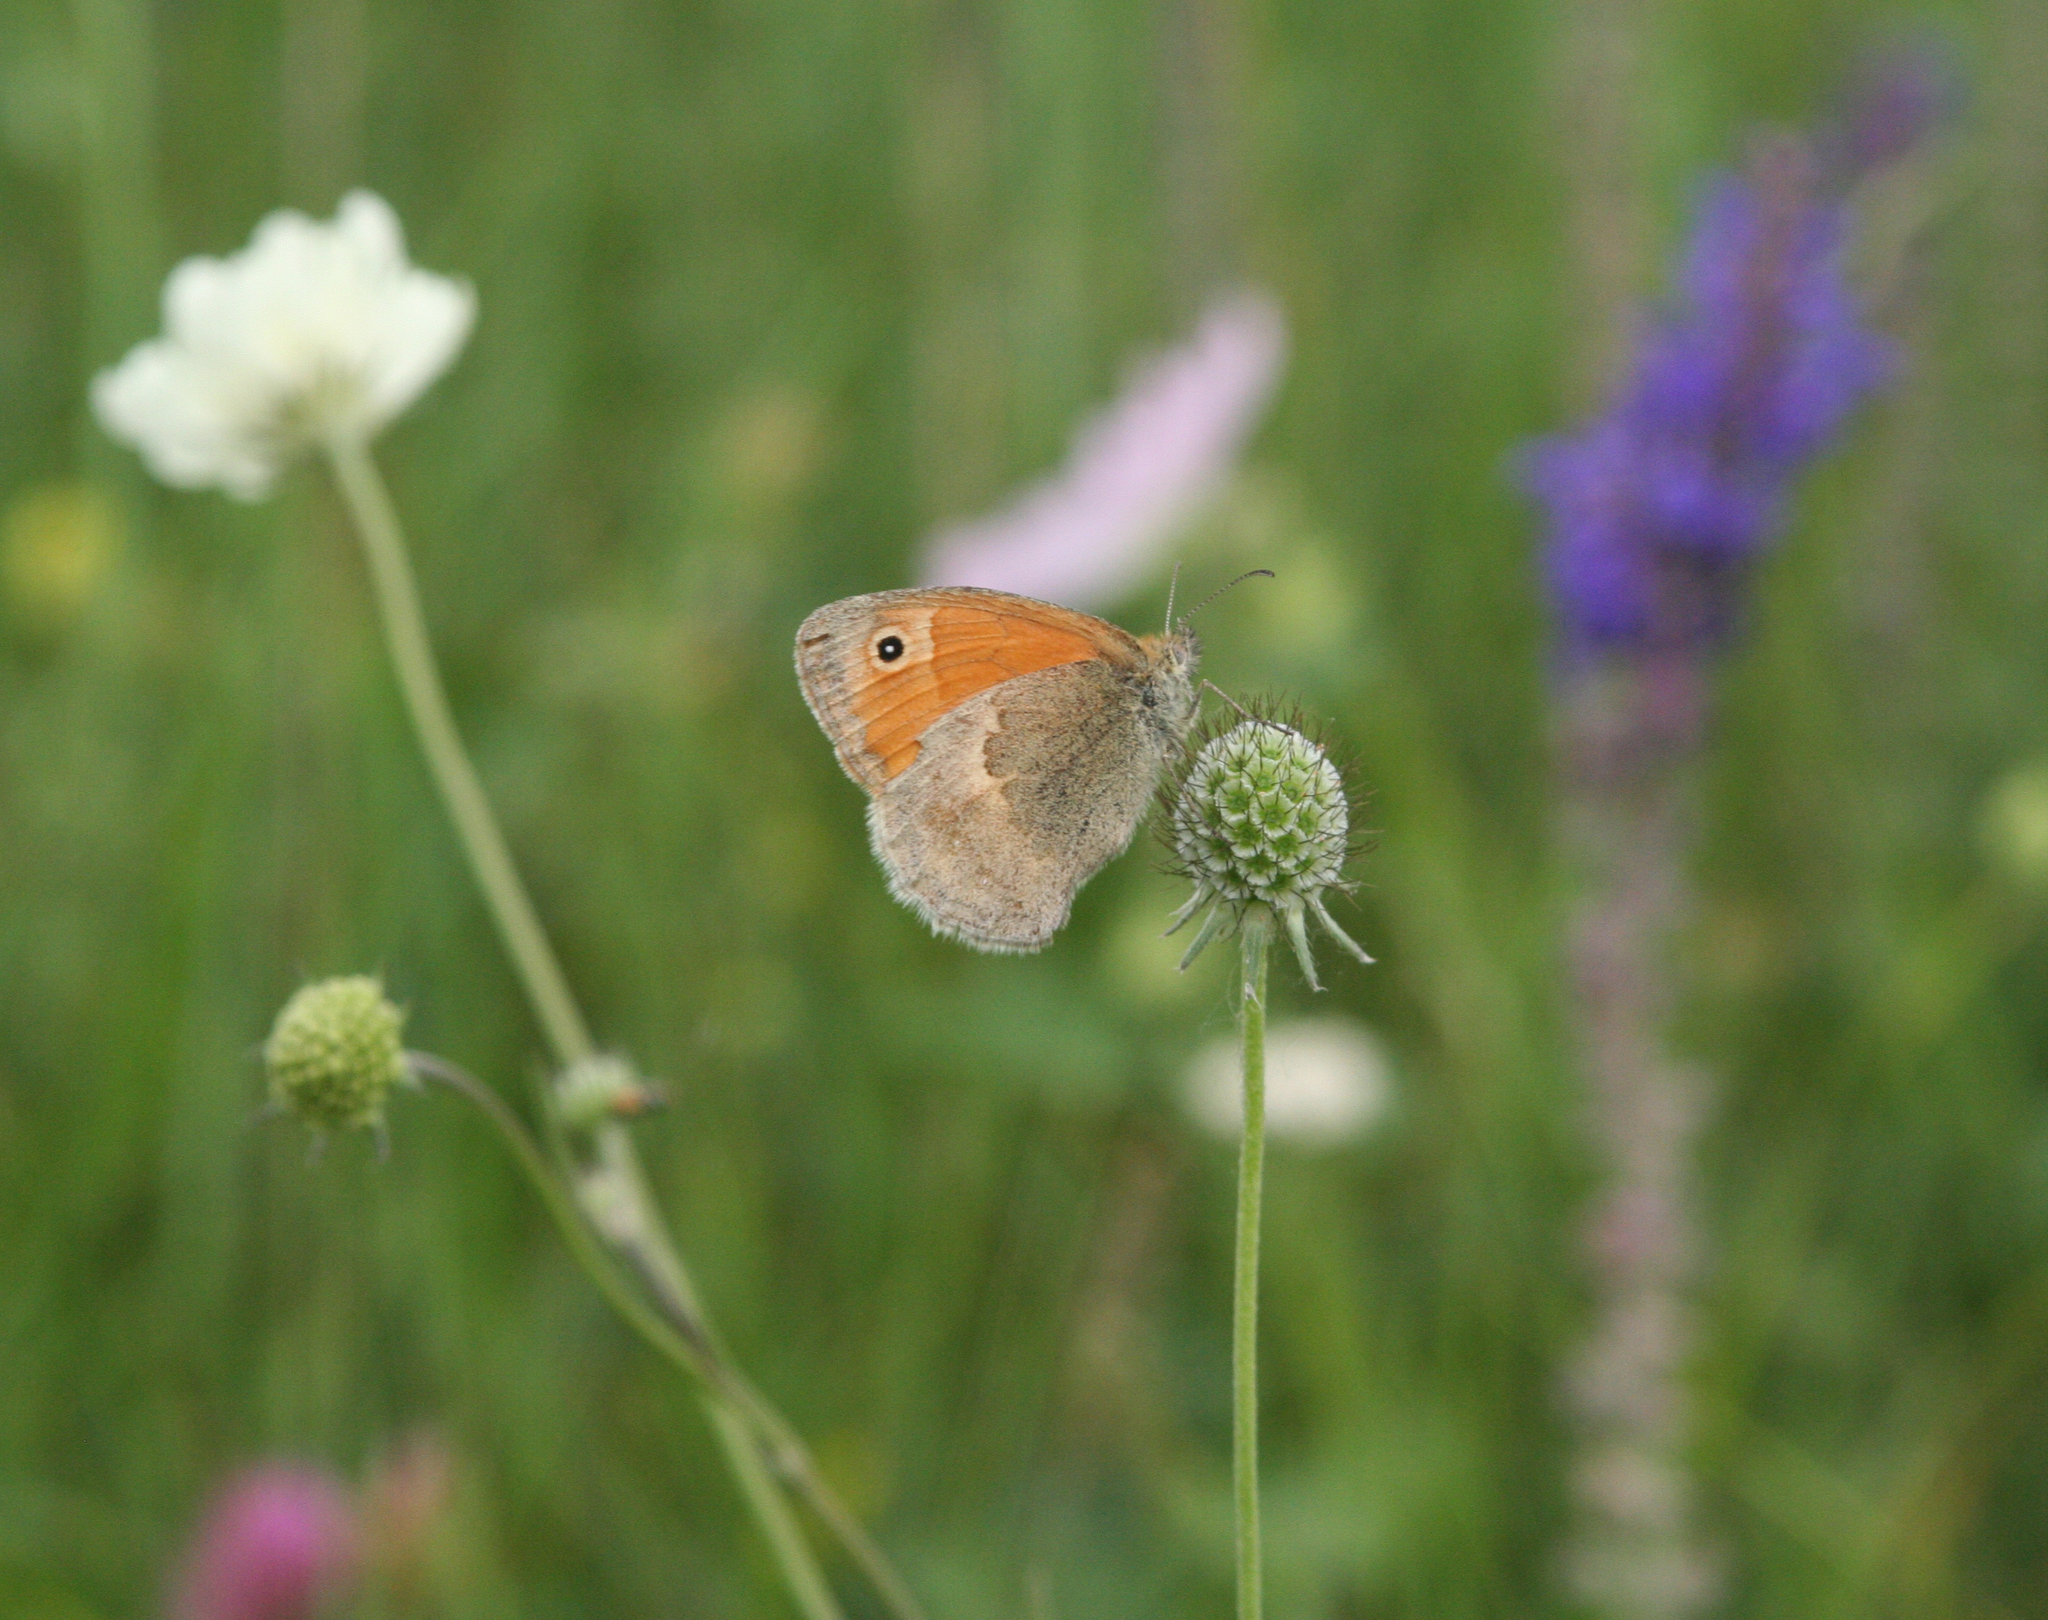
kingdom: Animalia
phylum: Arthropoda
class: Insecta
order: Lepidoptera
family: Nymphalidae
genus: Coenonympha
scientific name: Coenonympha pamphilus
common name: Small heath
